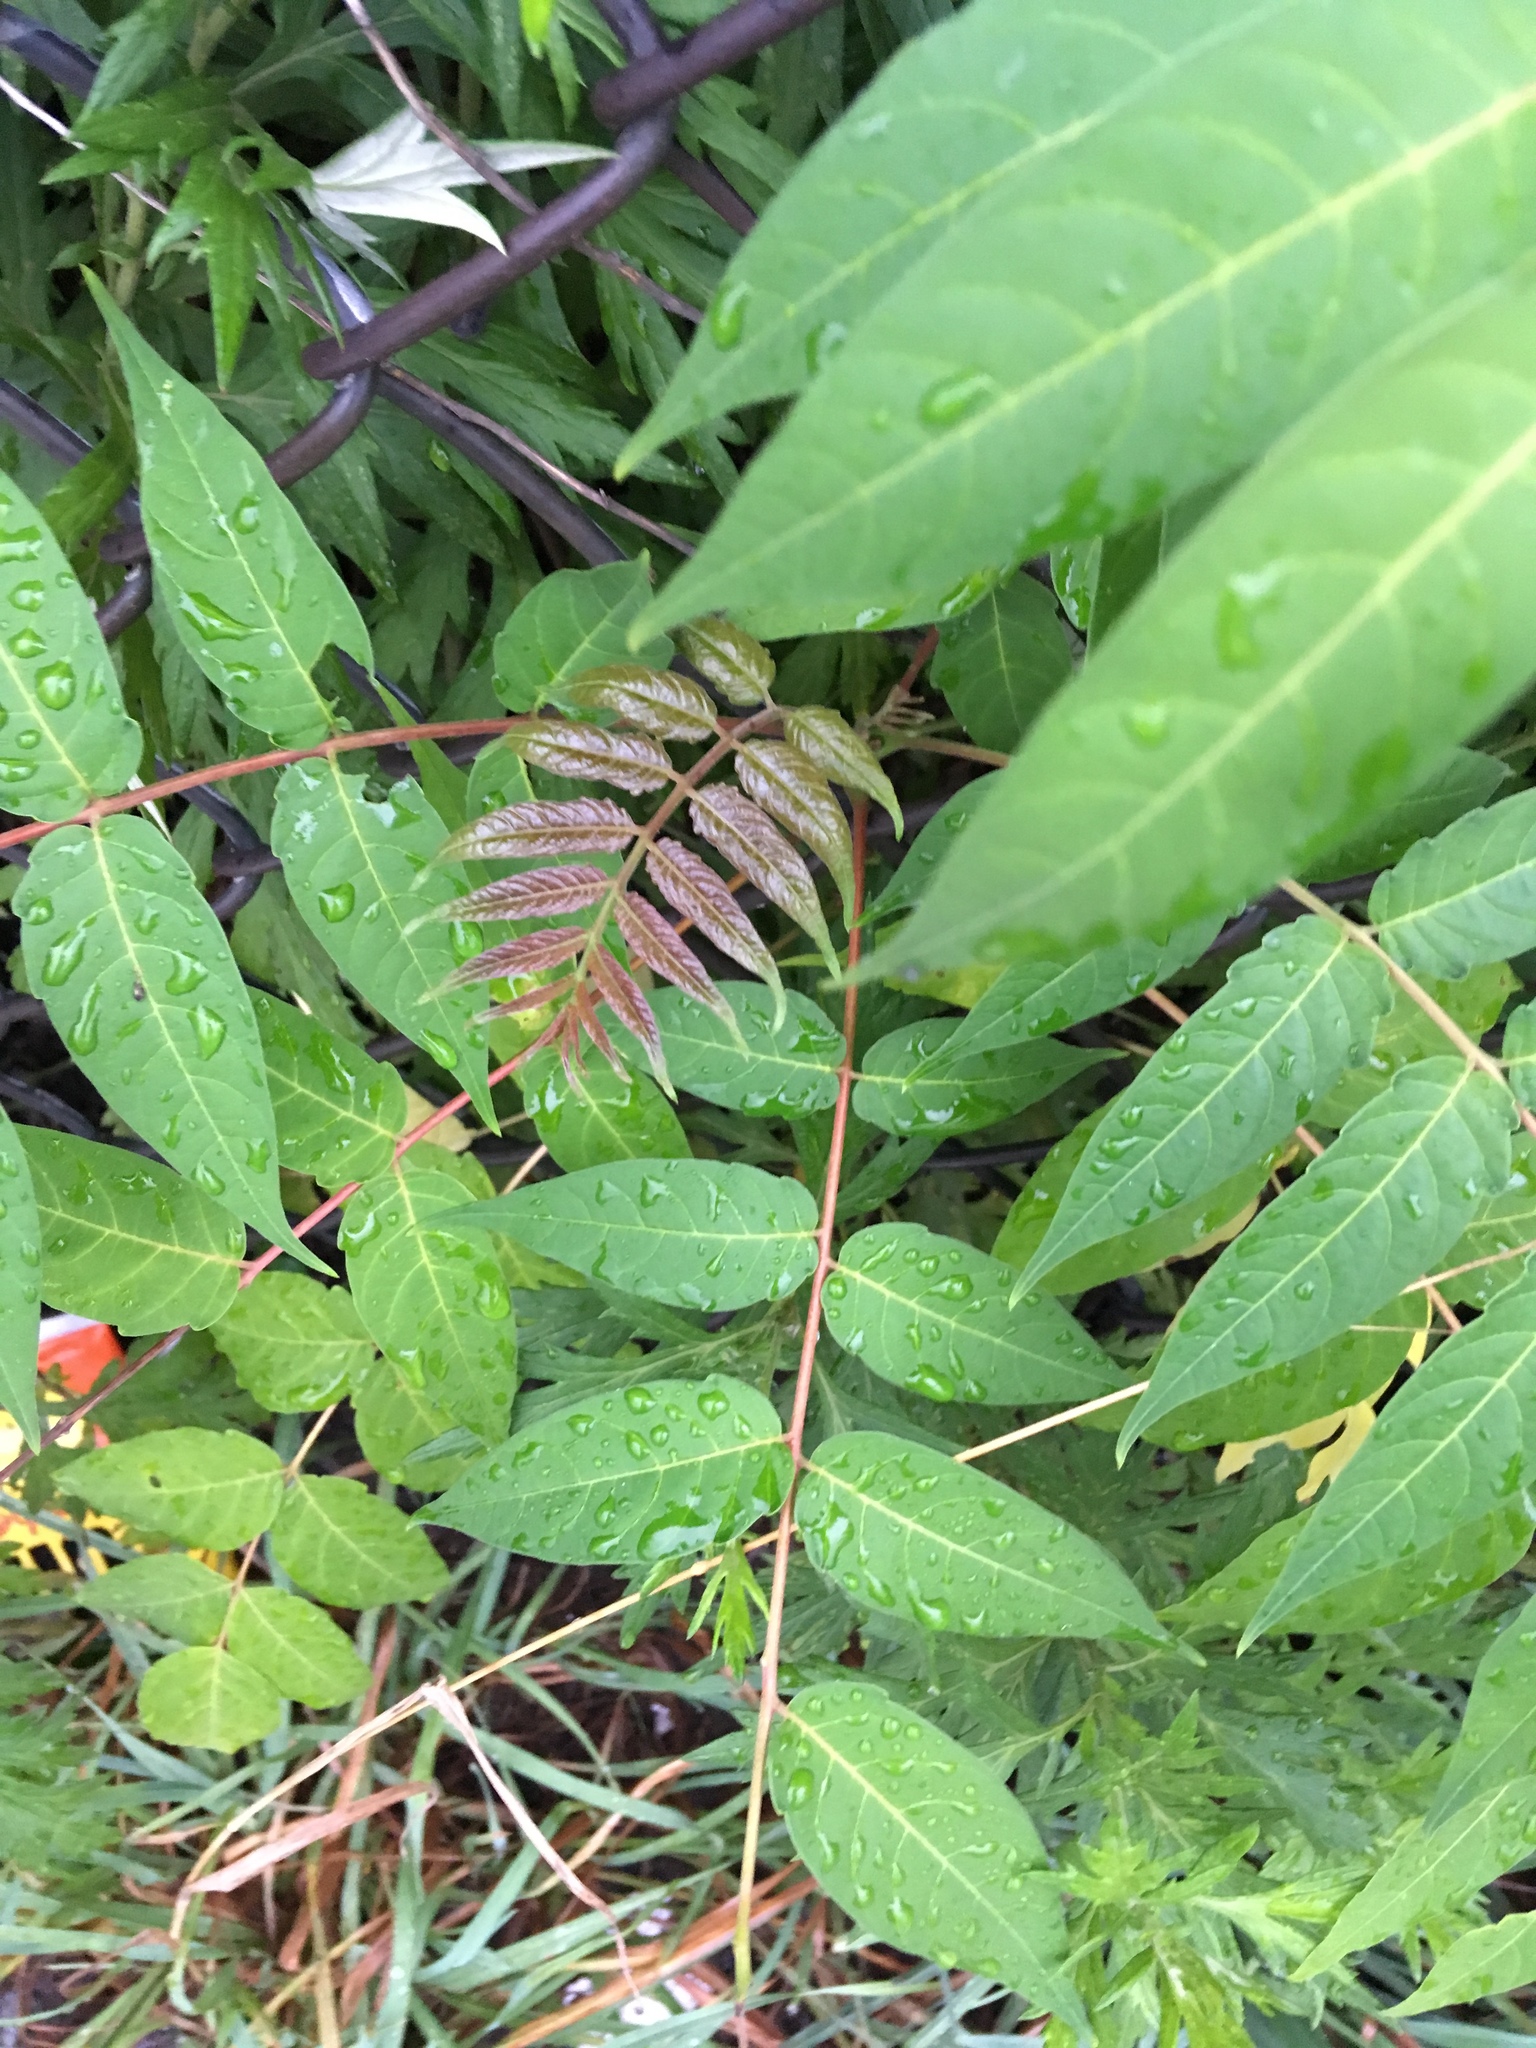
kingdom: Plantae
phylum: Tracheophyta
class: Magnoliopsida
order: Sapindales
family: Simaroubaceae
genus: Ailanthus
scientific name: Ailanthus altissima
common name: Tree-of-heaven
